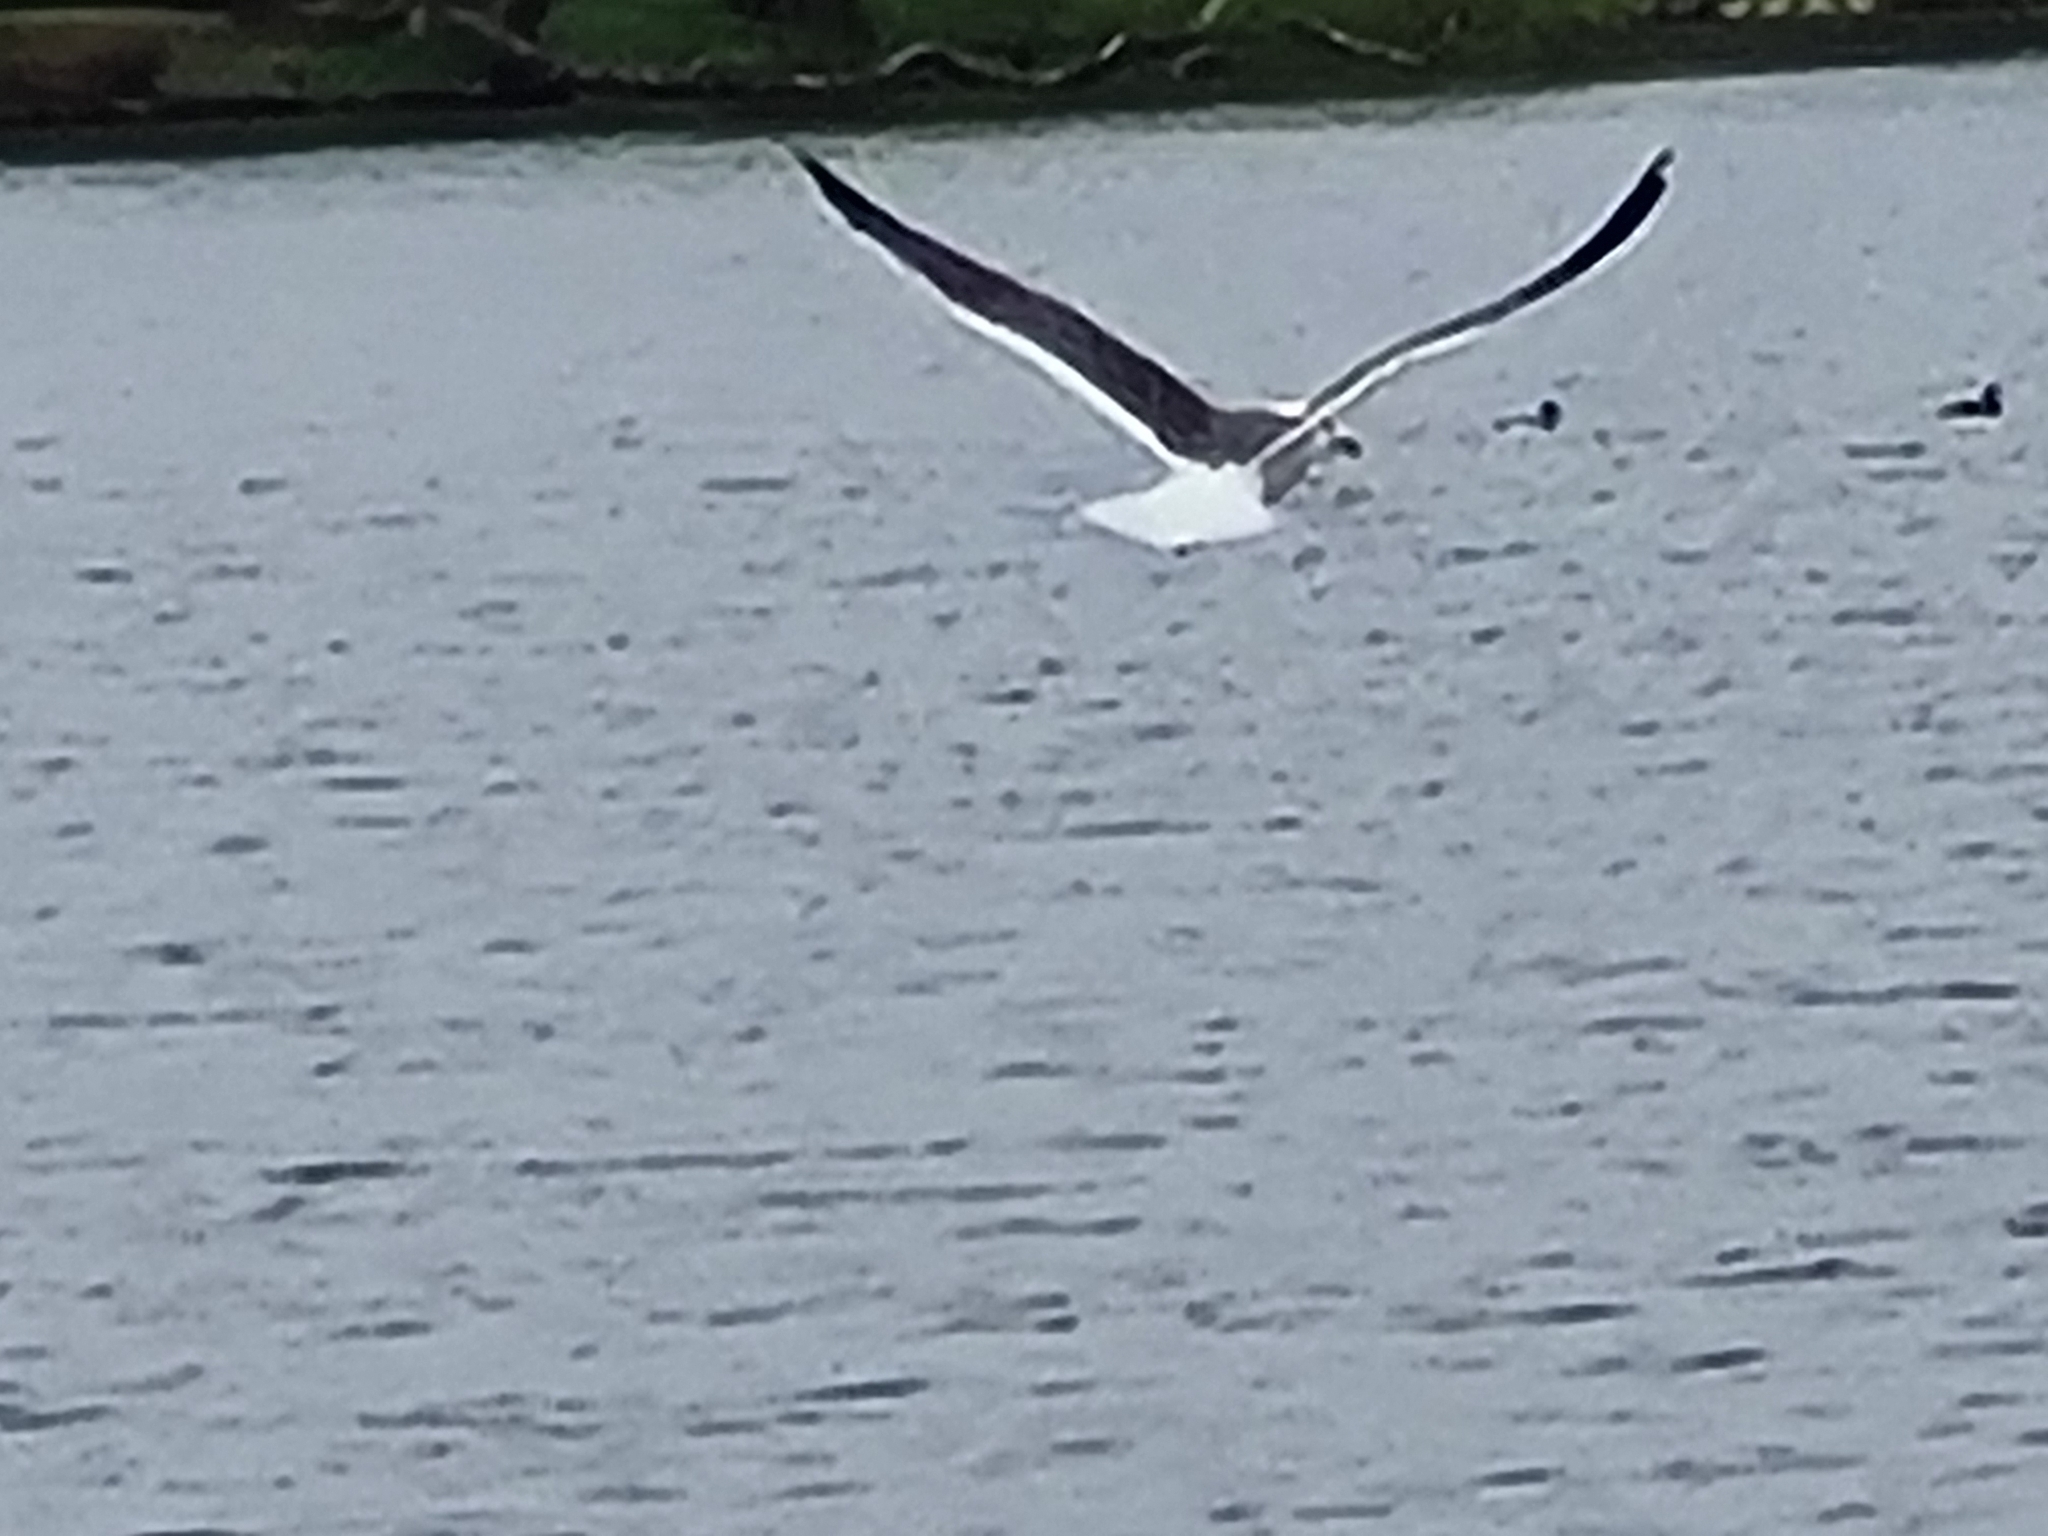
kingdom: Animalia
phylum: Chordata
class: Aves
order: Charadriiformes
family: Laridae
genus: Larus
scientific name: Larus fuscus
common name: Lesser black-backed gull
